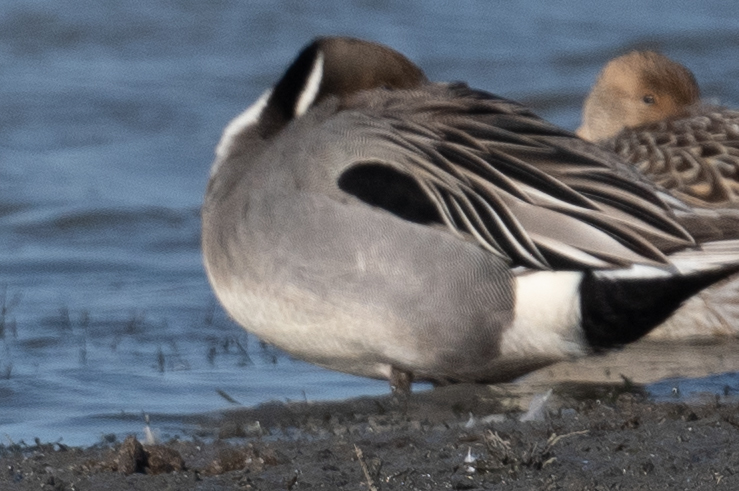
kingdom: Animalia
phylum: Chordata
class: Aves
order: Anseriformes
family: Anatidae
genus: Anas
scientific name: Anas acuta
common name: Northern pintail
